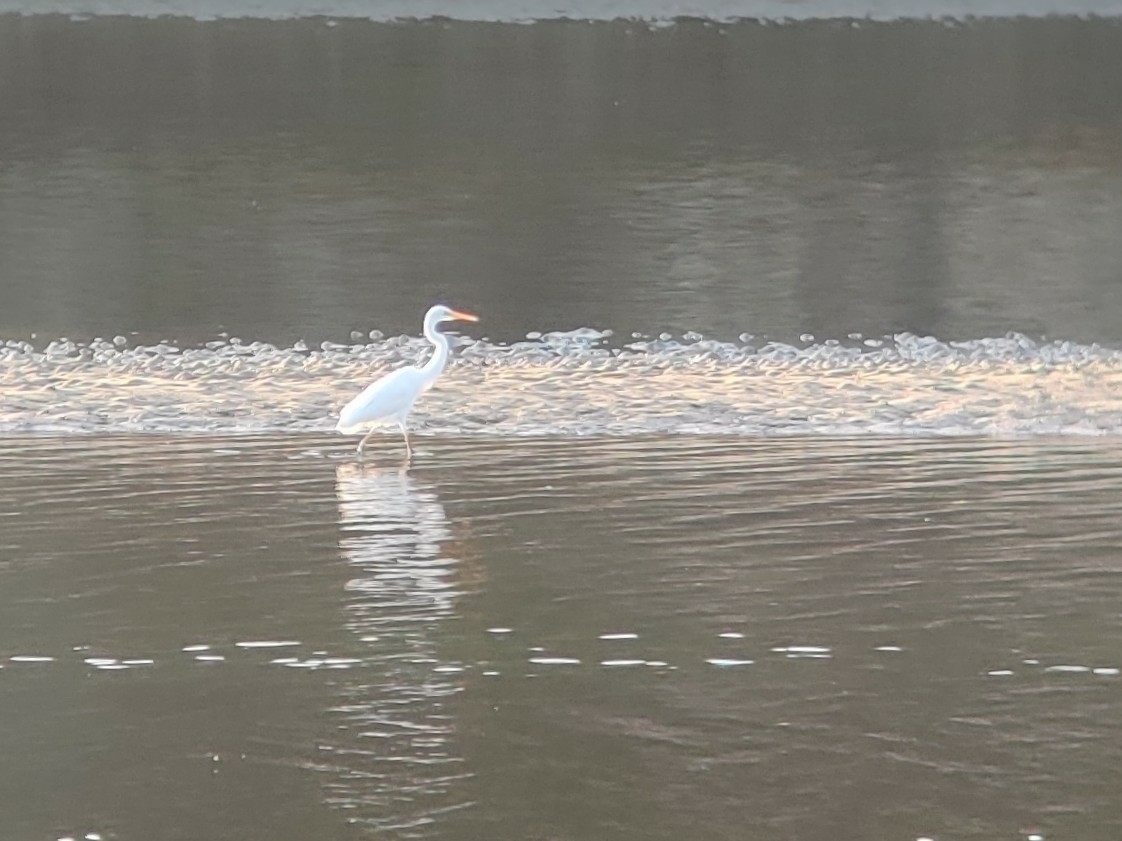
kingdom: Animalia
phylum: Chordata
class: Aves
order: Pelecaniformes
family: Ardeidae
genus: Ardea
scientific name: Ardea alba
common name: Great egret
